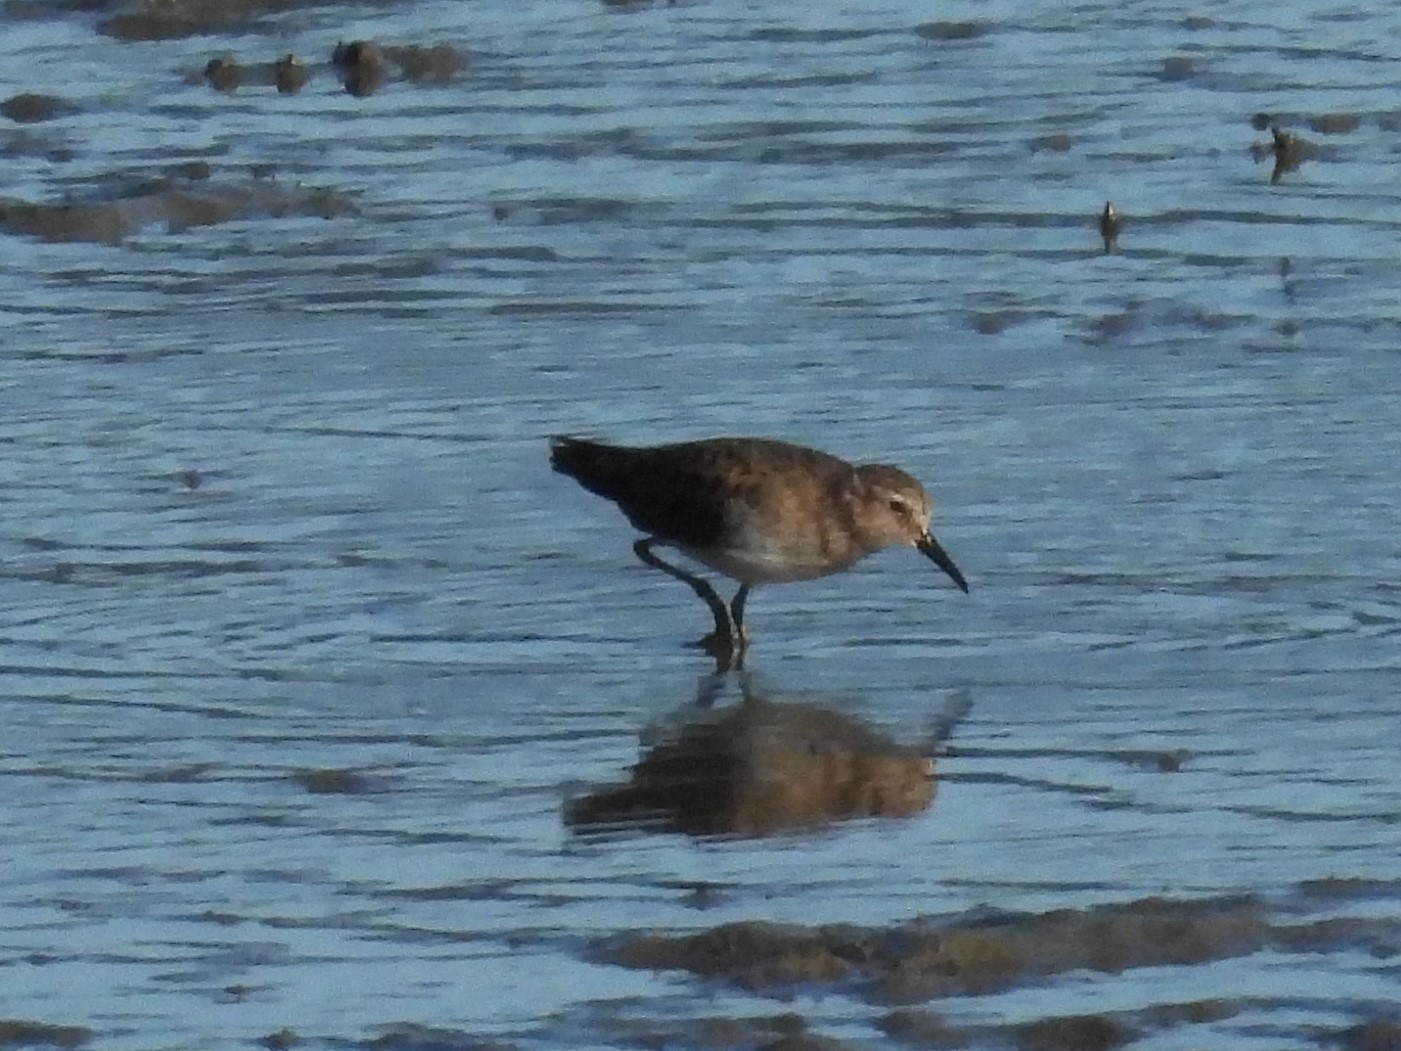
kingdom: Animalia
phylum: Chordata
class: Aves
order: Charadriiformes
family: Scolopacidae
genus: Calidris
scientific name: Calidris minutilla
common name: Least sandpiper
